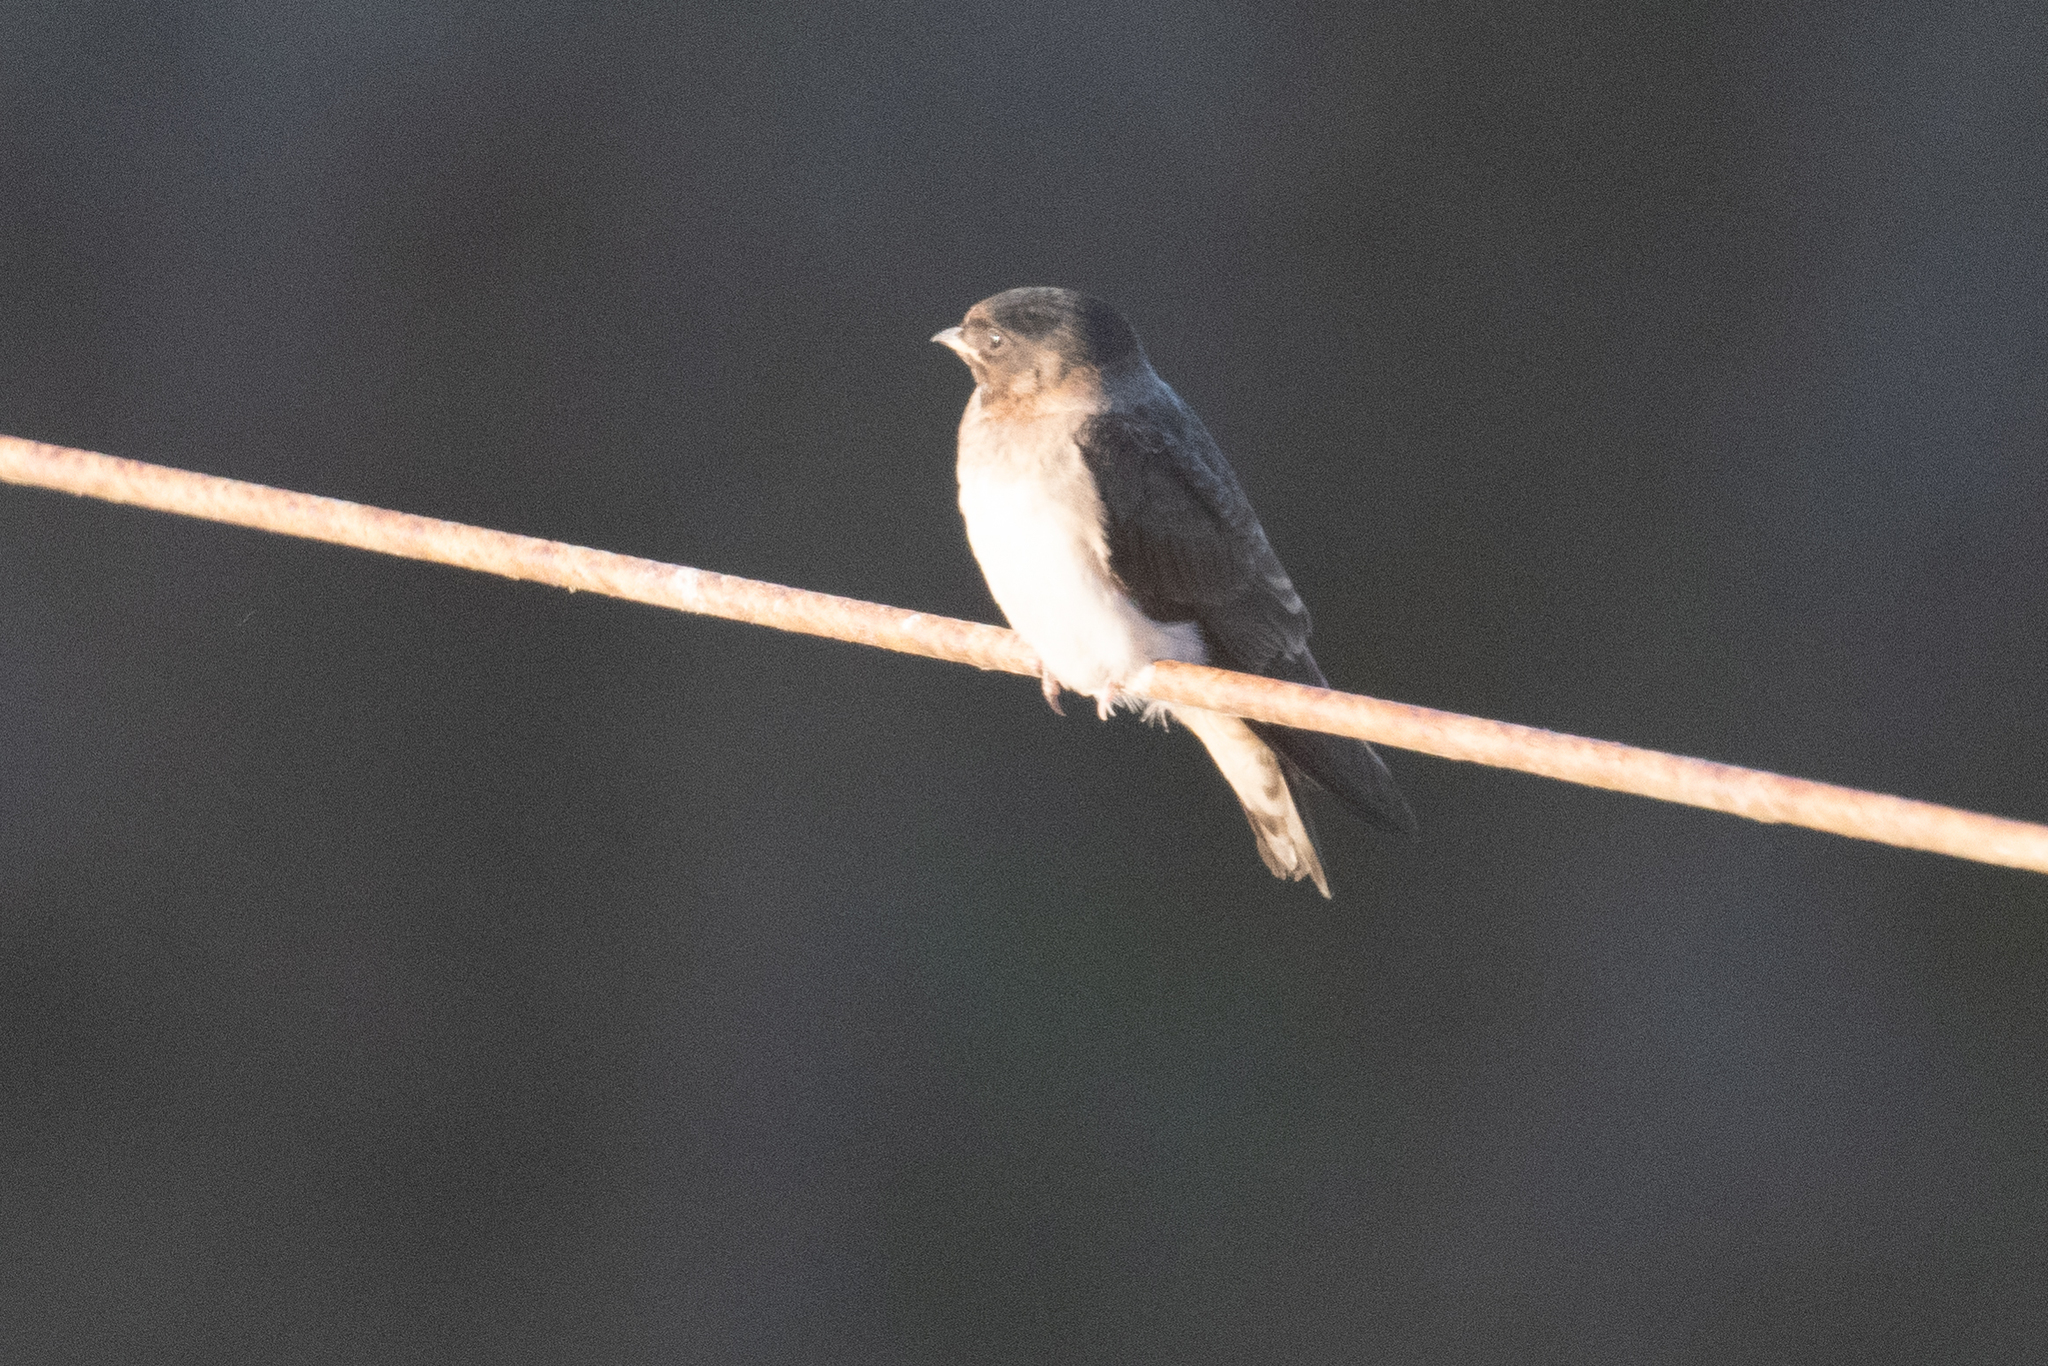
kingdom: Animalia
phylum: Chordata
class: Aves
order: Passeriformes
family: Hirundinidae
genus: Petrochelidon
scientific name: Petrochelidon pyrrhonota
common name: American cliff swallow
